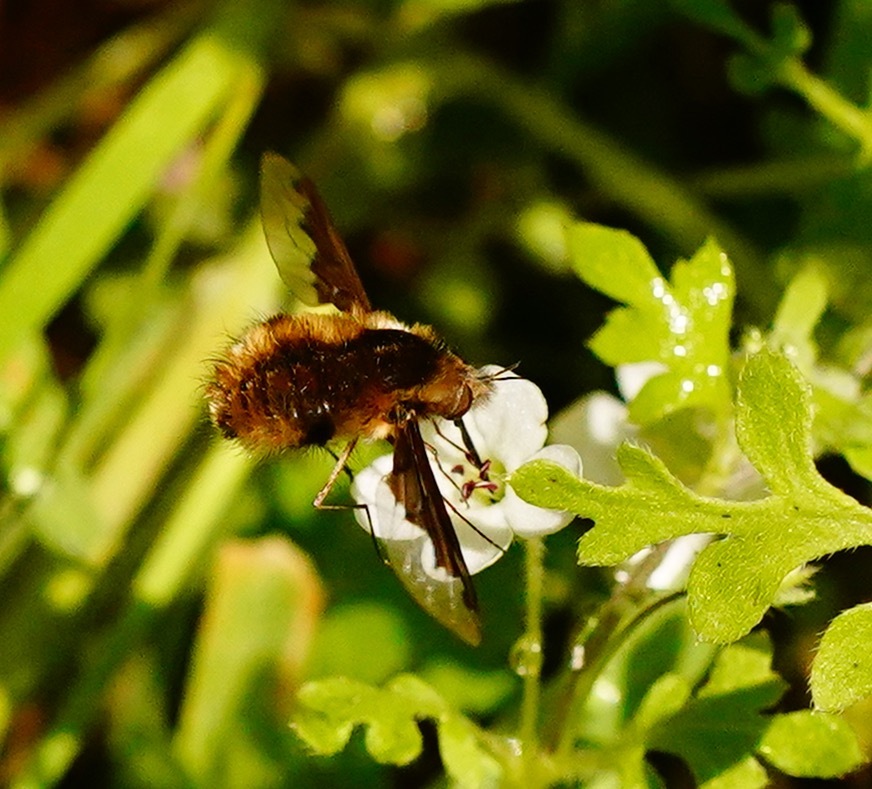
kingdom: Animalia
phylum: Arthropoda
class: Insecta
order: Diptera
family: Bombyliidae
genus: Bombylius
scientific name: Bombylius major
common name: Bee fly
